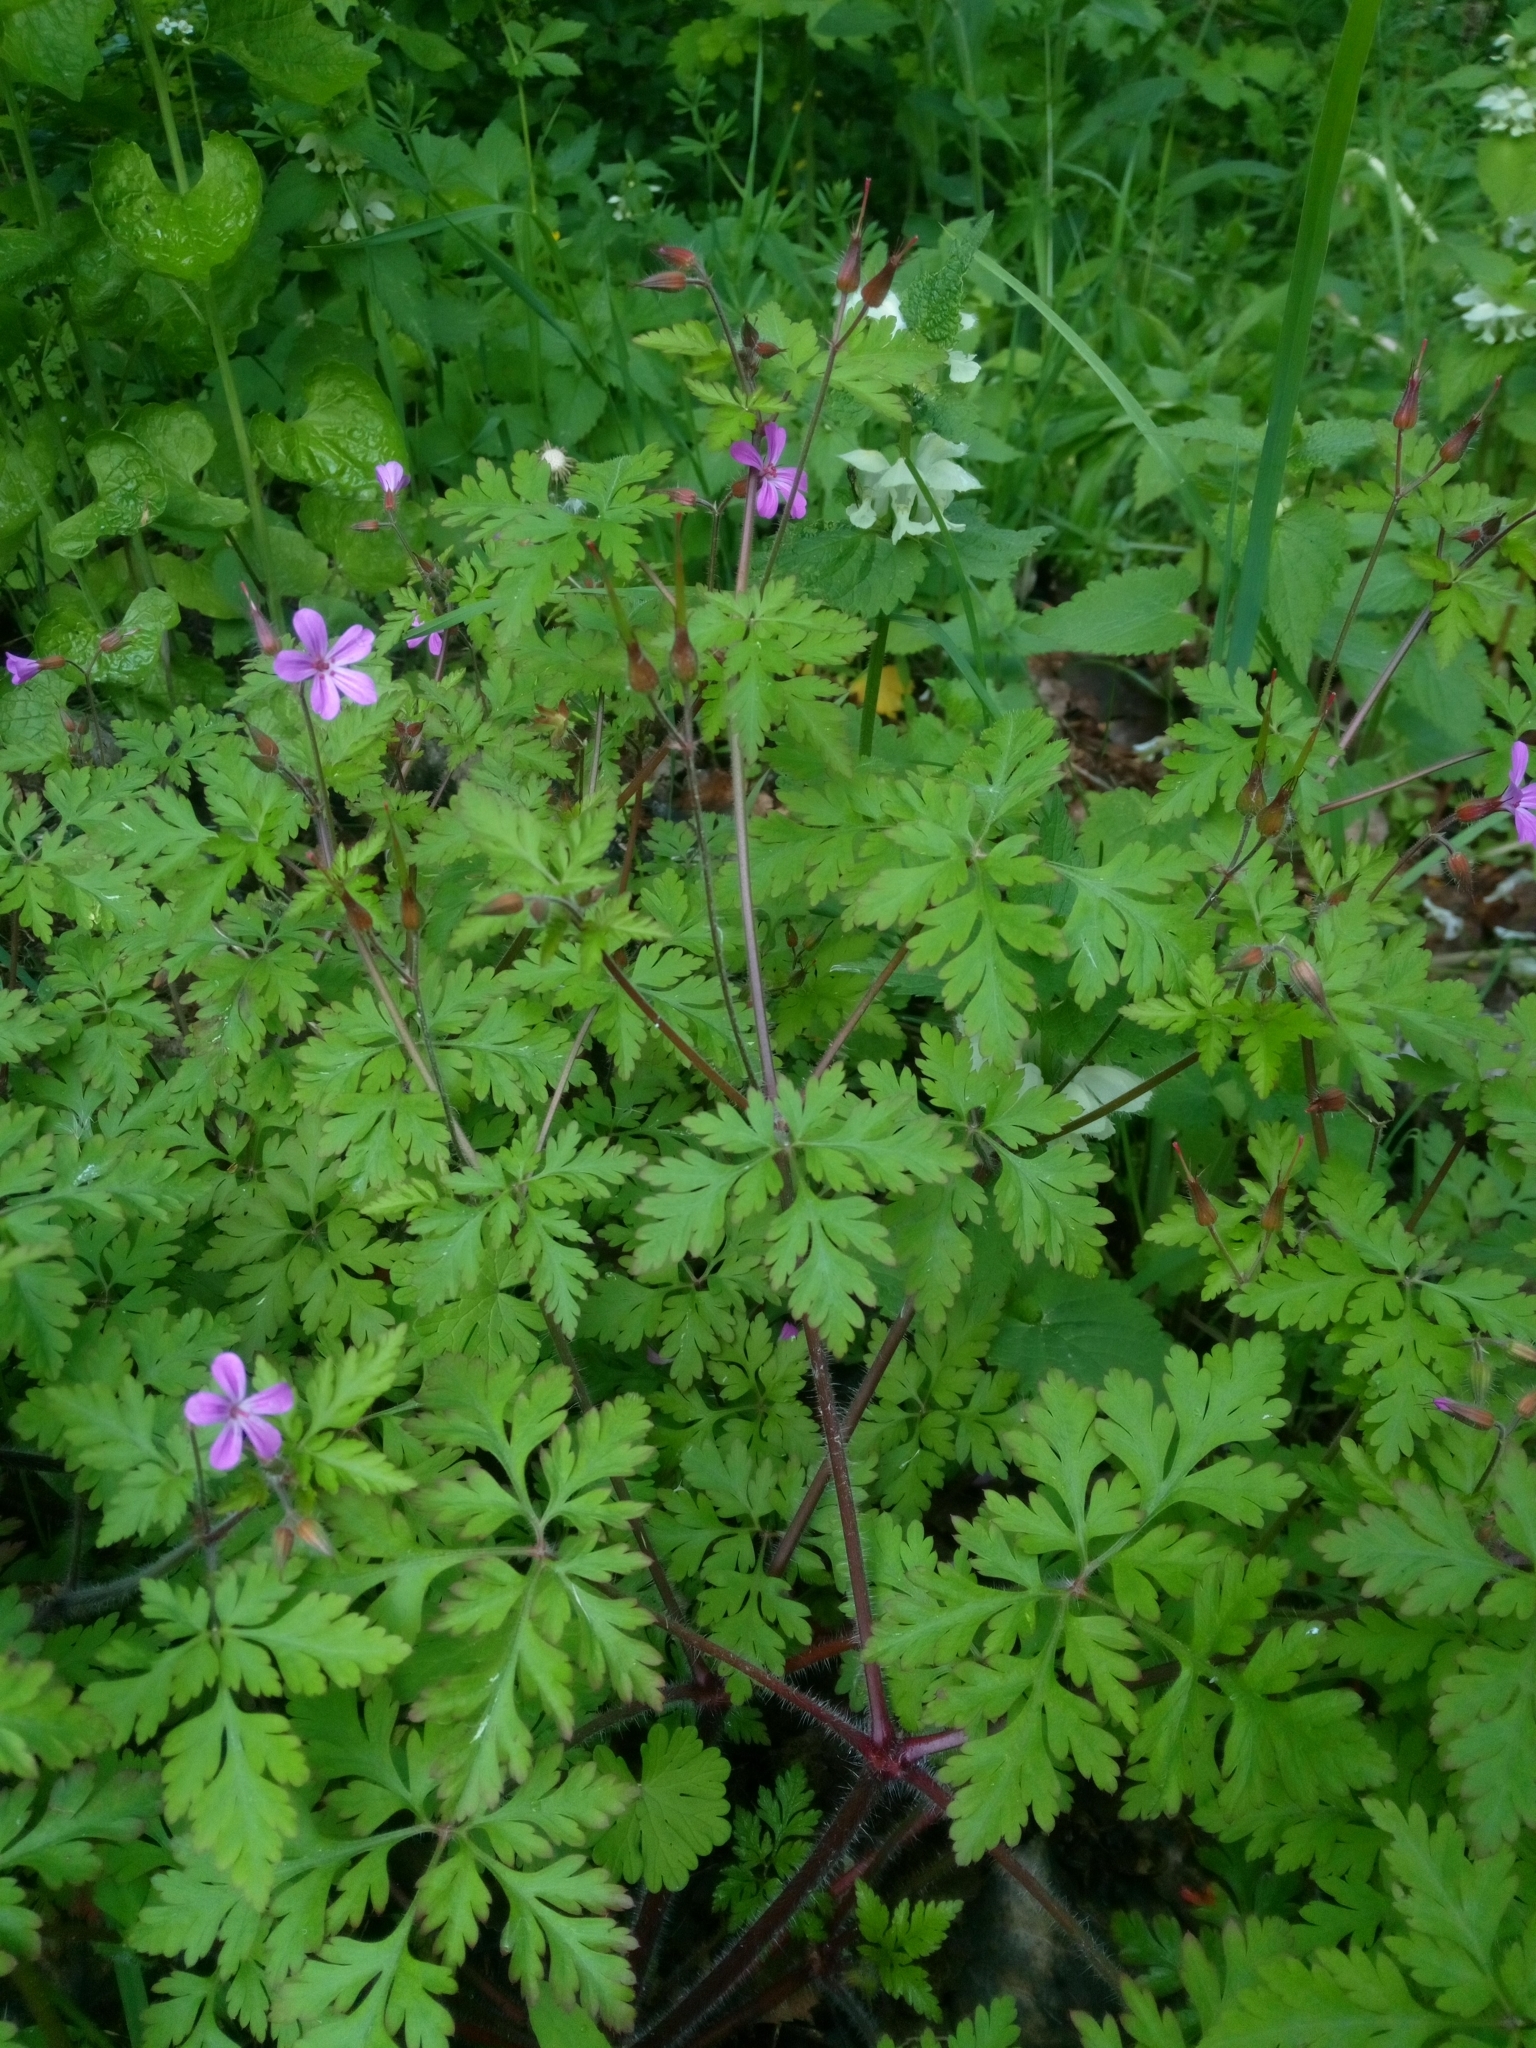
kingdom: Plantae
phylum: Tracheophyta
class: Magnoliopsida
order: Geraniales
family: Geraniaceae
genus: Geranium
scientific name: Geranium robertianum
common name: Herb-robert
